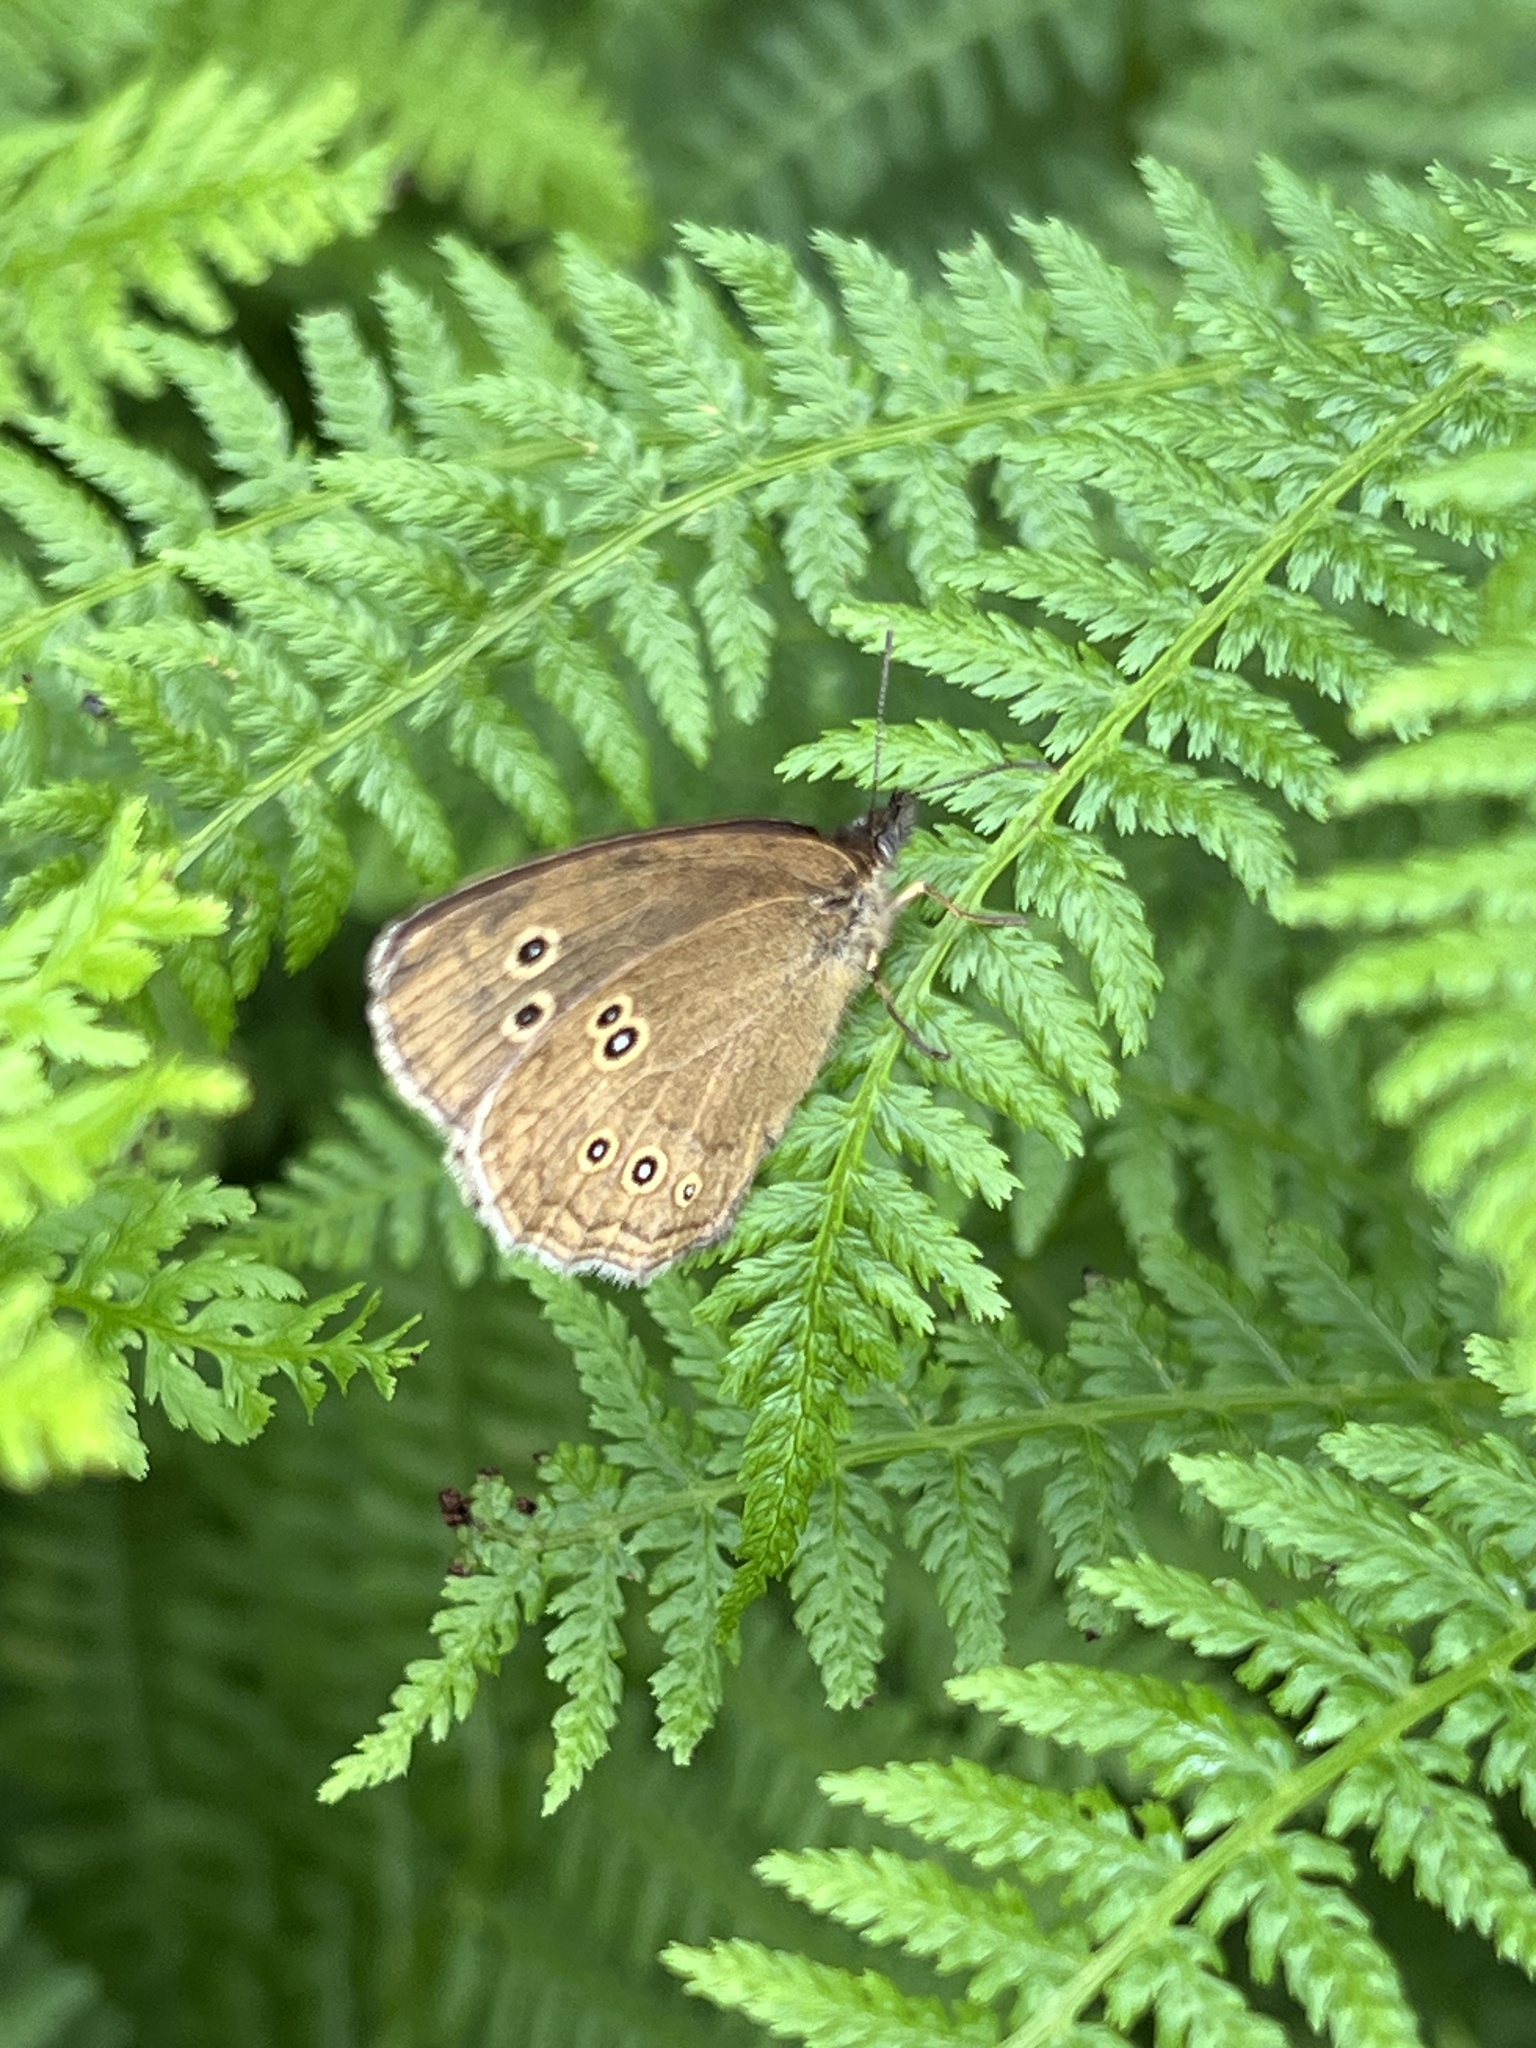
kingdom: Animalia
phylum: Arthropoda
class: Insecta
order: Lepidoptera
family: Nymphalidae
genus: Aphantopus
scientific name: Aphantopus hyperantus
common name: Ringlet
